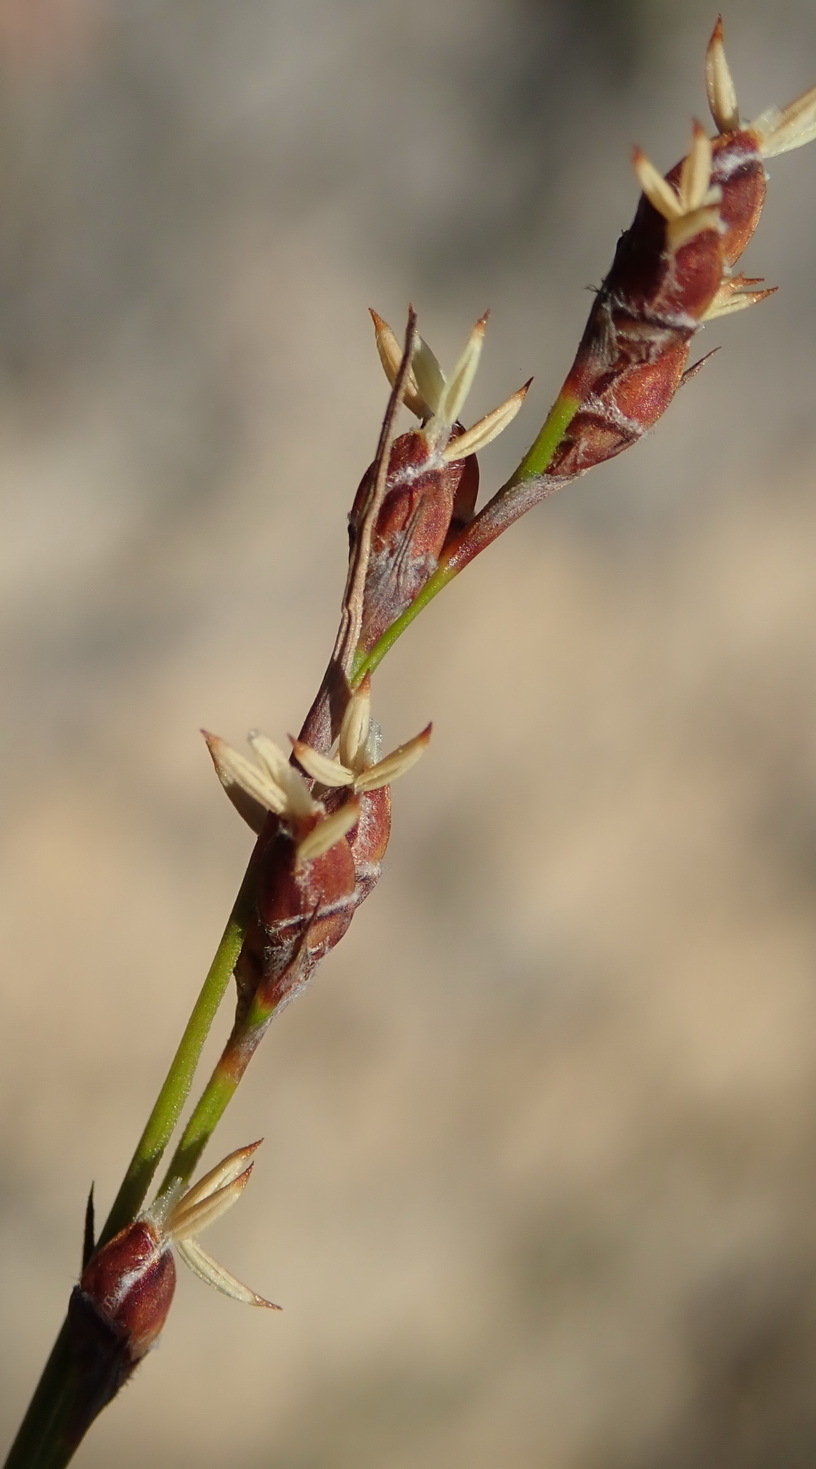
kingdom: Plantae
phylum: Tracheophyta
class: Liliopsida
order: Poales
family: Cyperaceae
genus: Tetraria
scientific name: Tetraria fimbriolata
